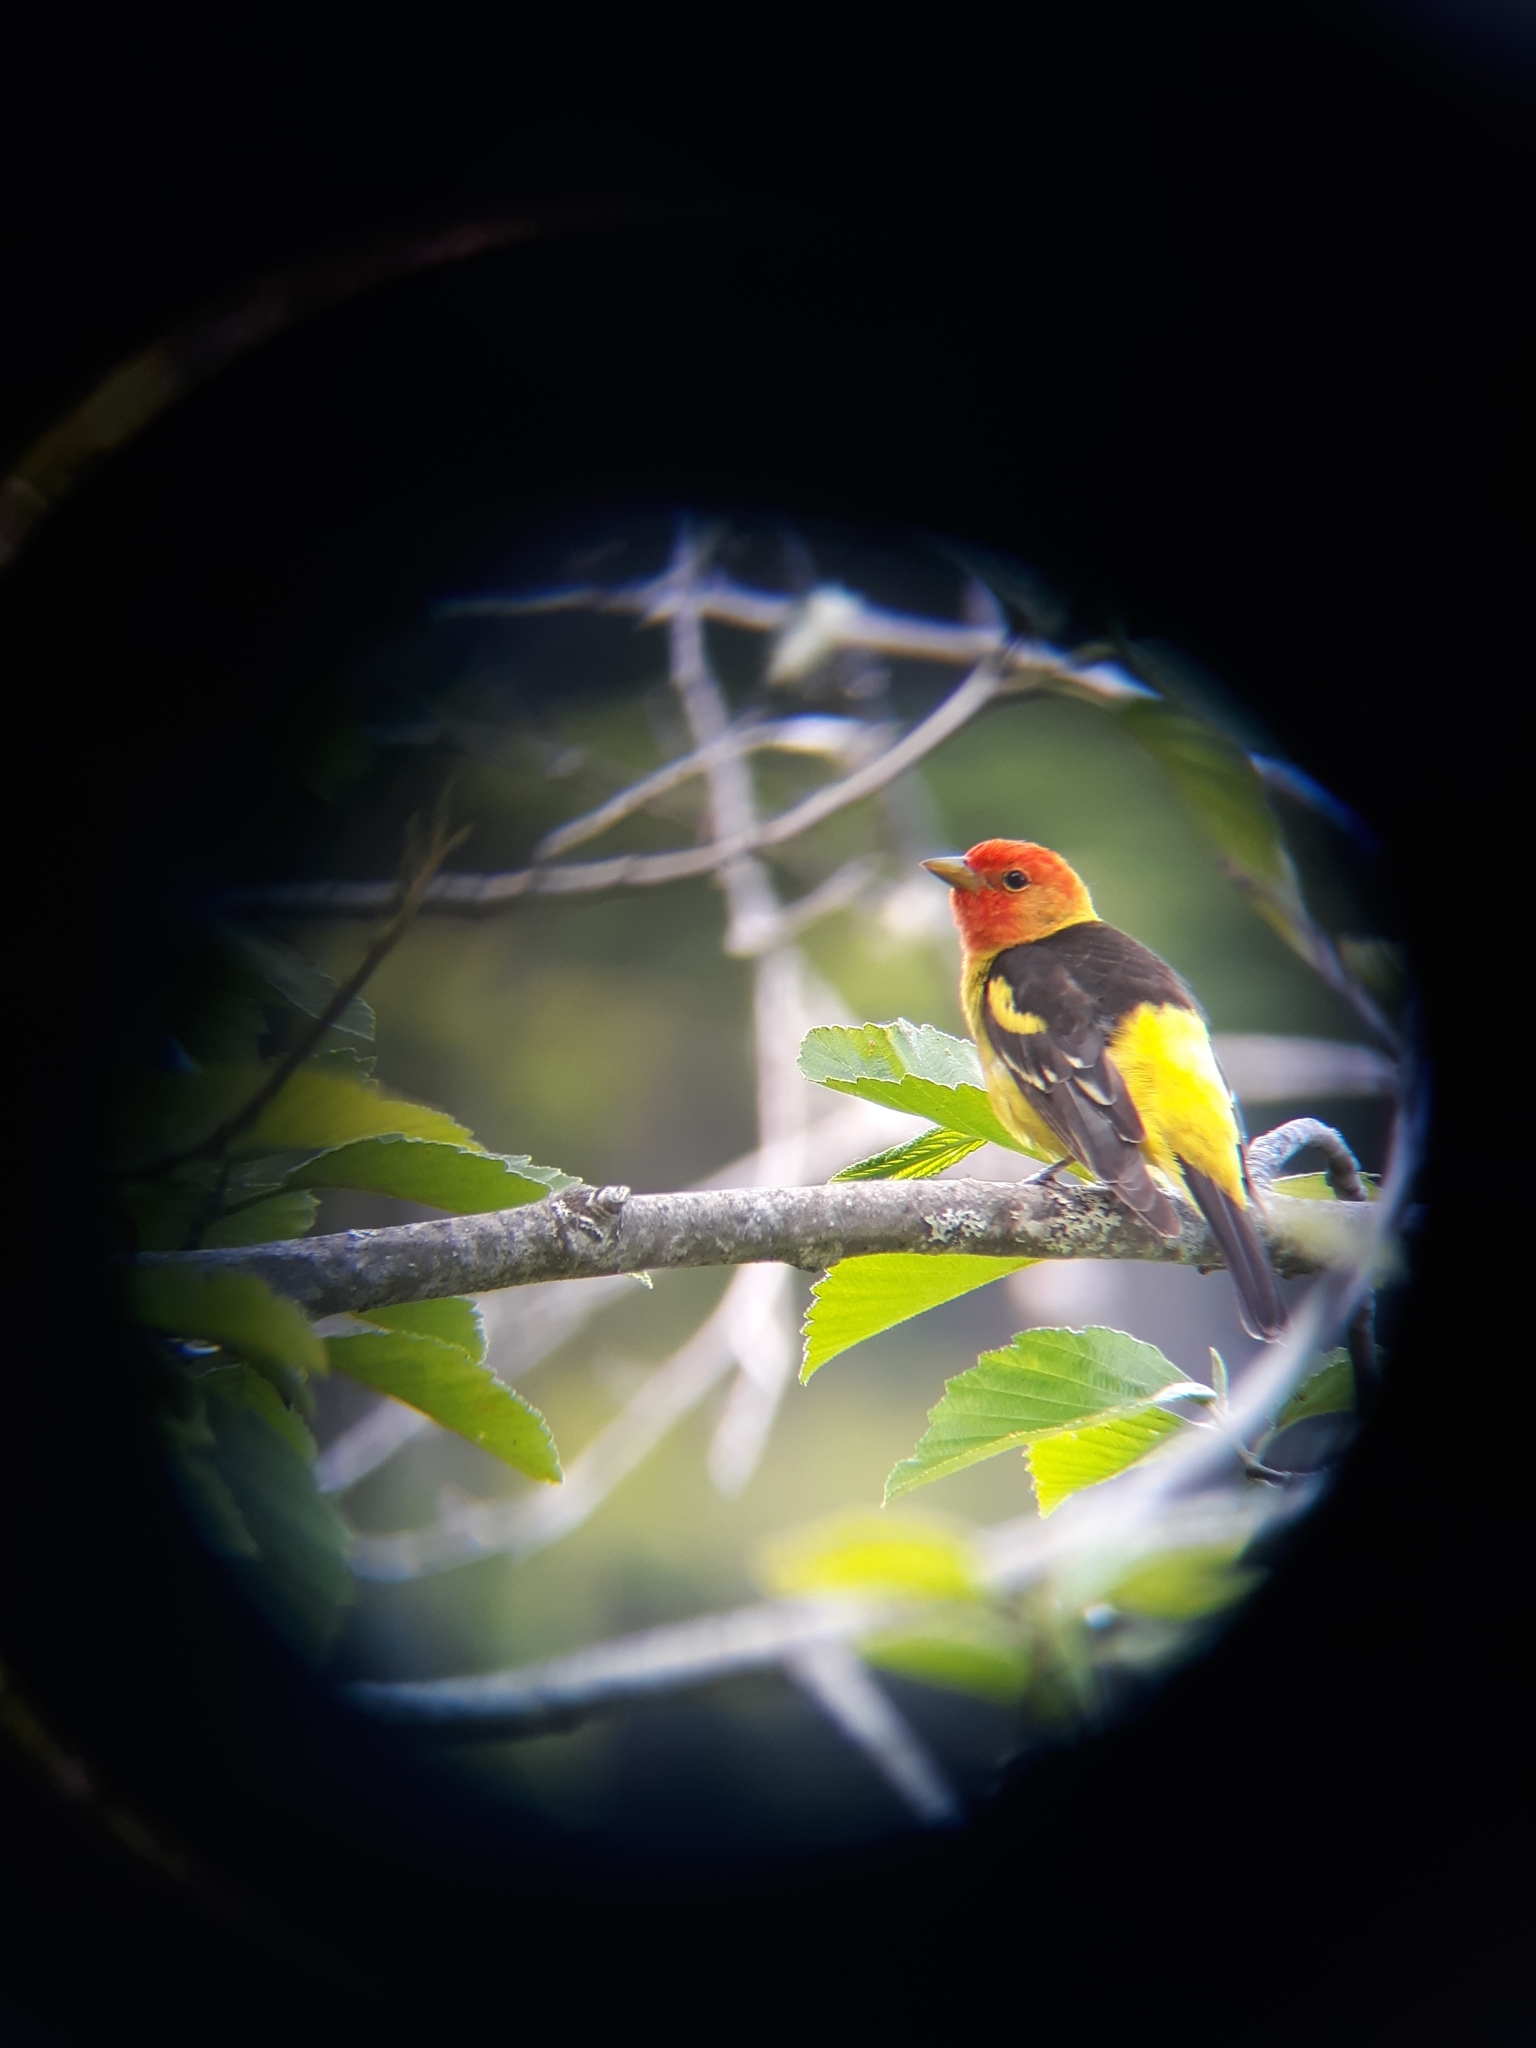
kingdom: Animalia
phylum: Chordata
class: Aves
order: Passeriformes
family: Cardinalidae
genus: Piranga
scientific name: Piranga ludoviciana
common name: Western tanager
